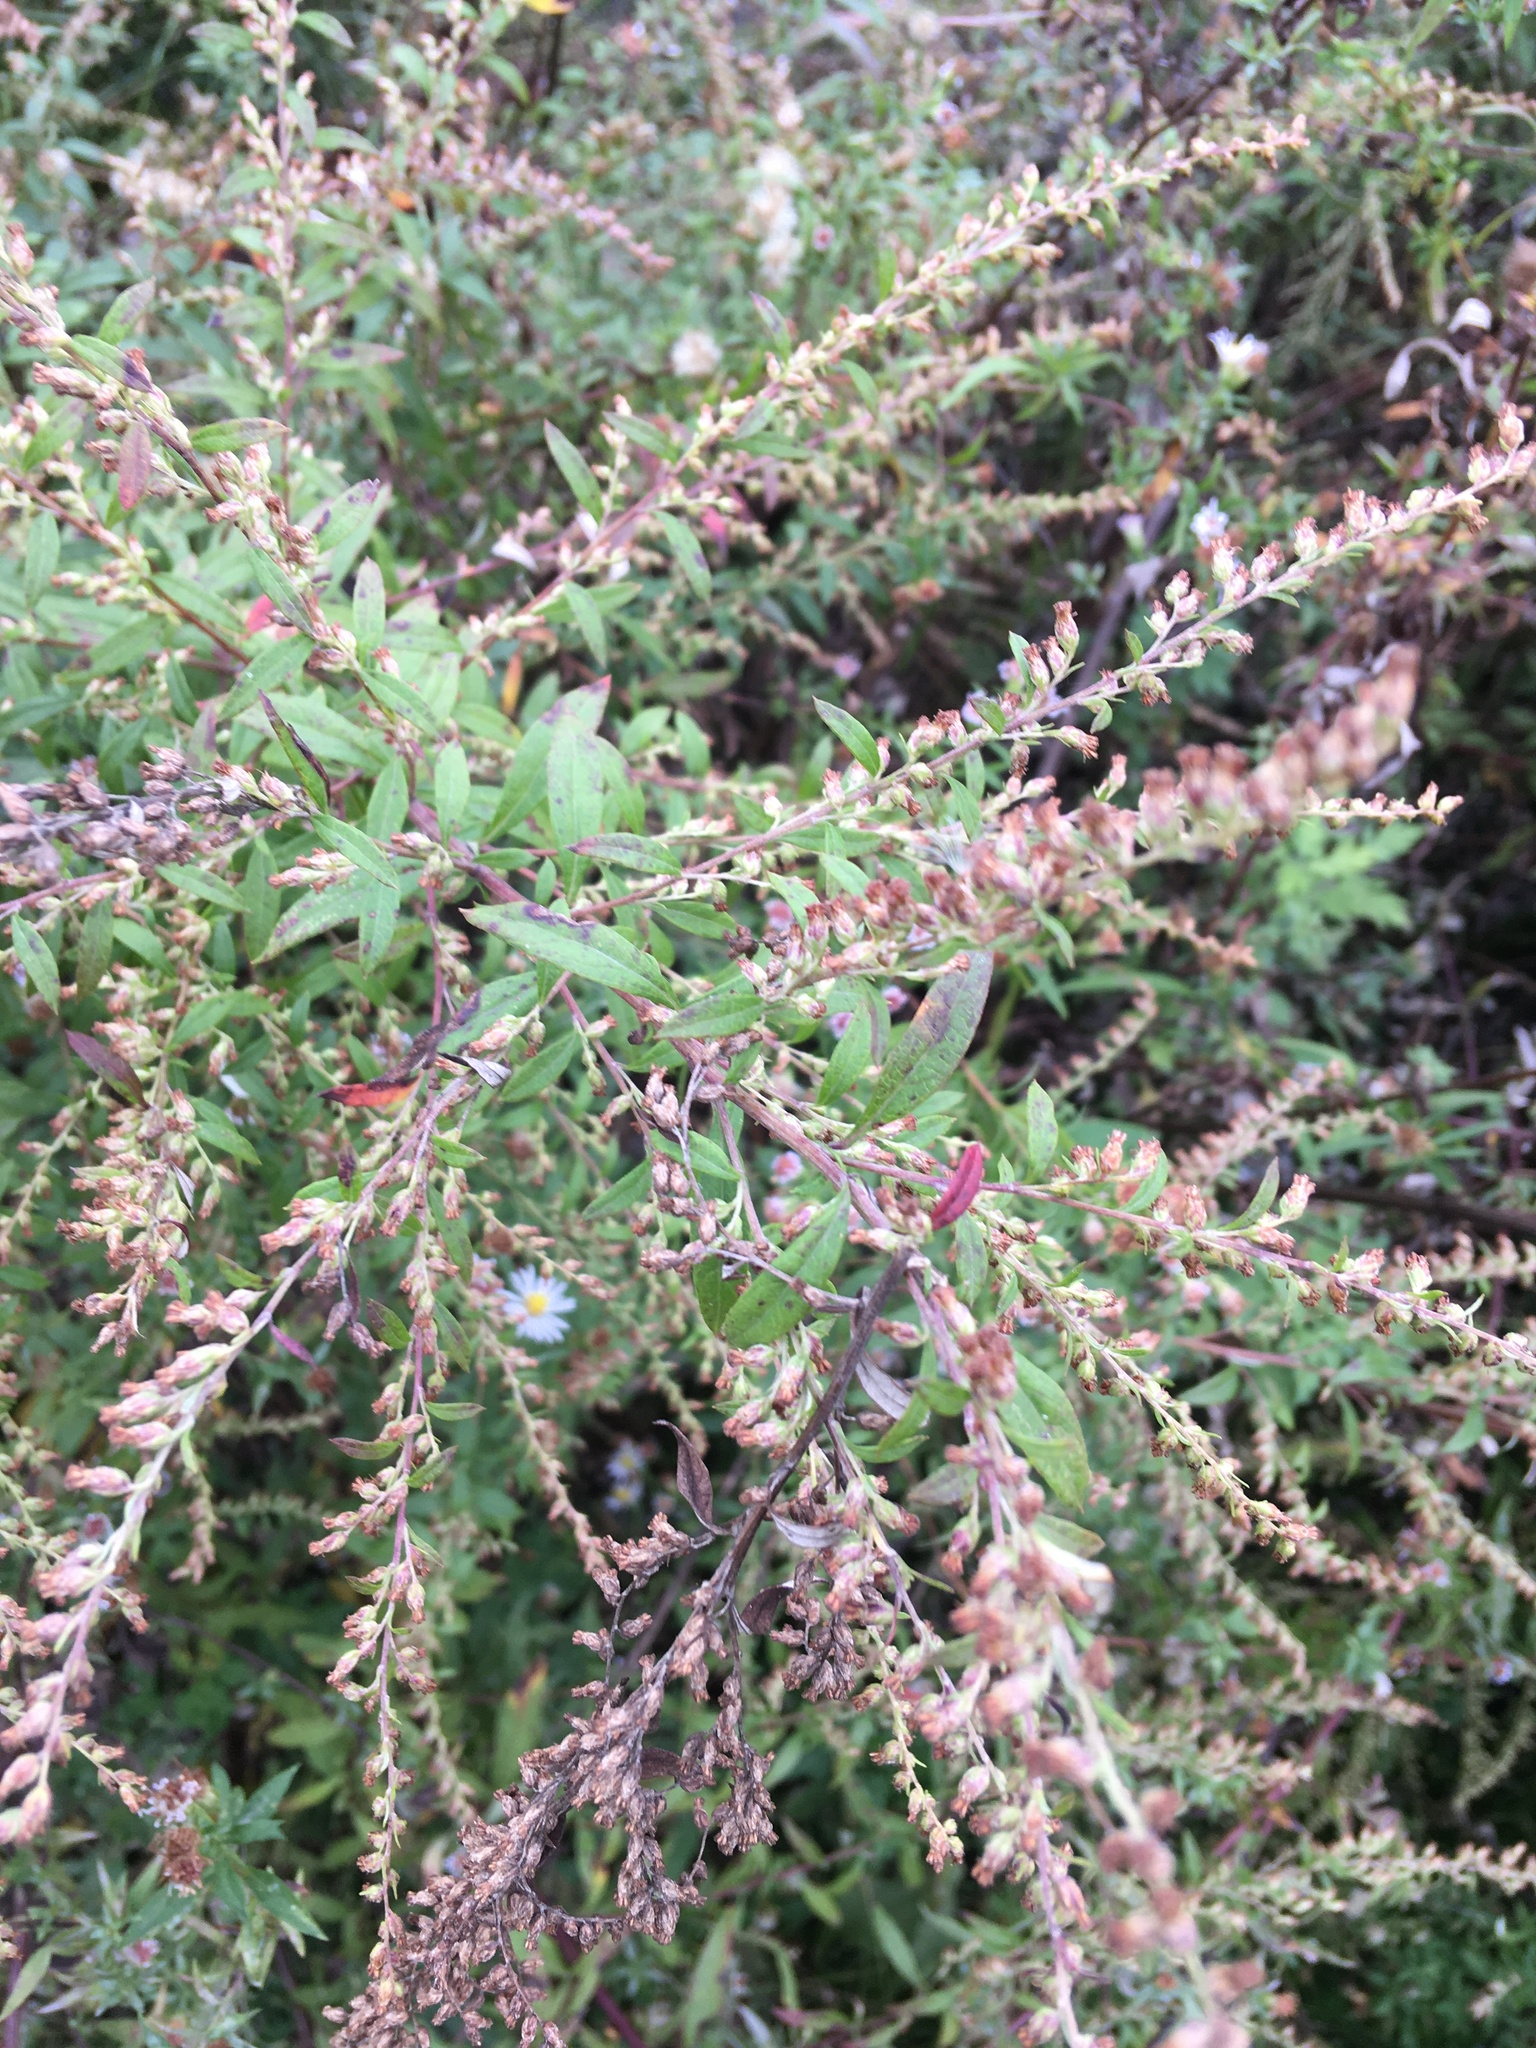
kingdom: Plantae
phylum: Tracheophyta
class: Magnoliopsida
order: Asterales
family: Asteraceae
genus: Artemisia
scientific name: Artemisia vulgaris
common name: Mugwort
